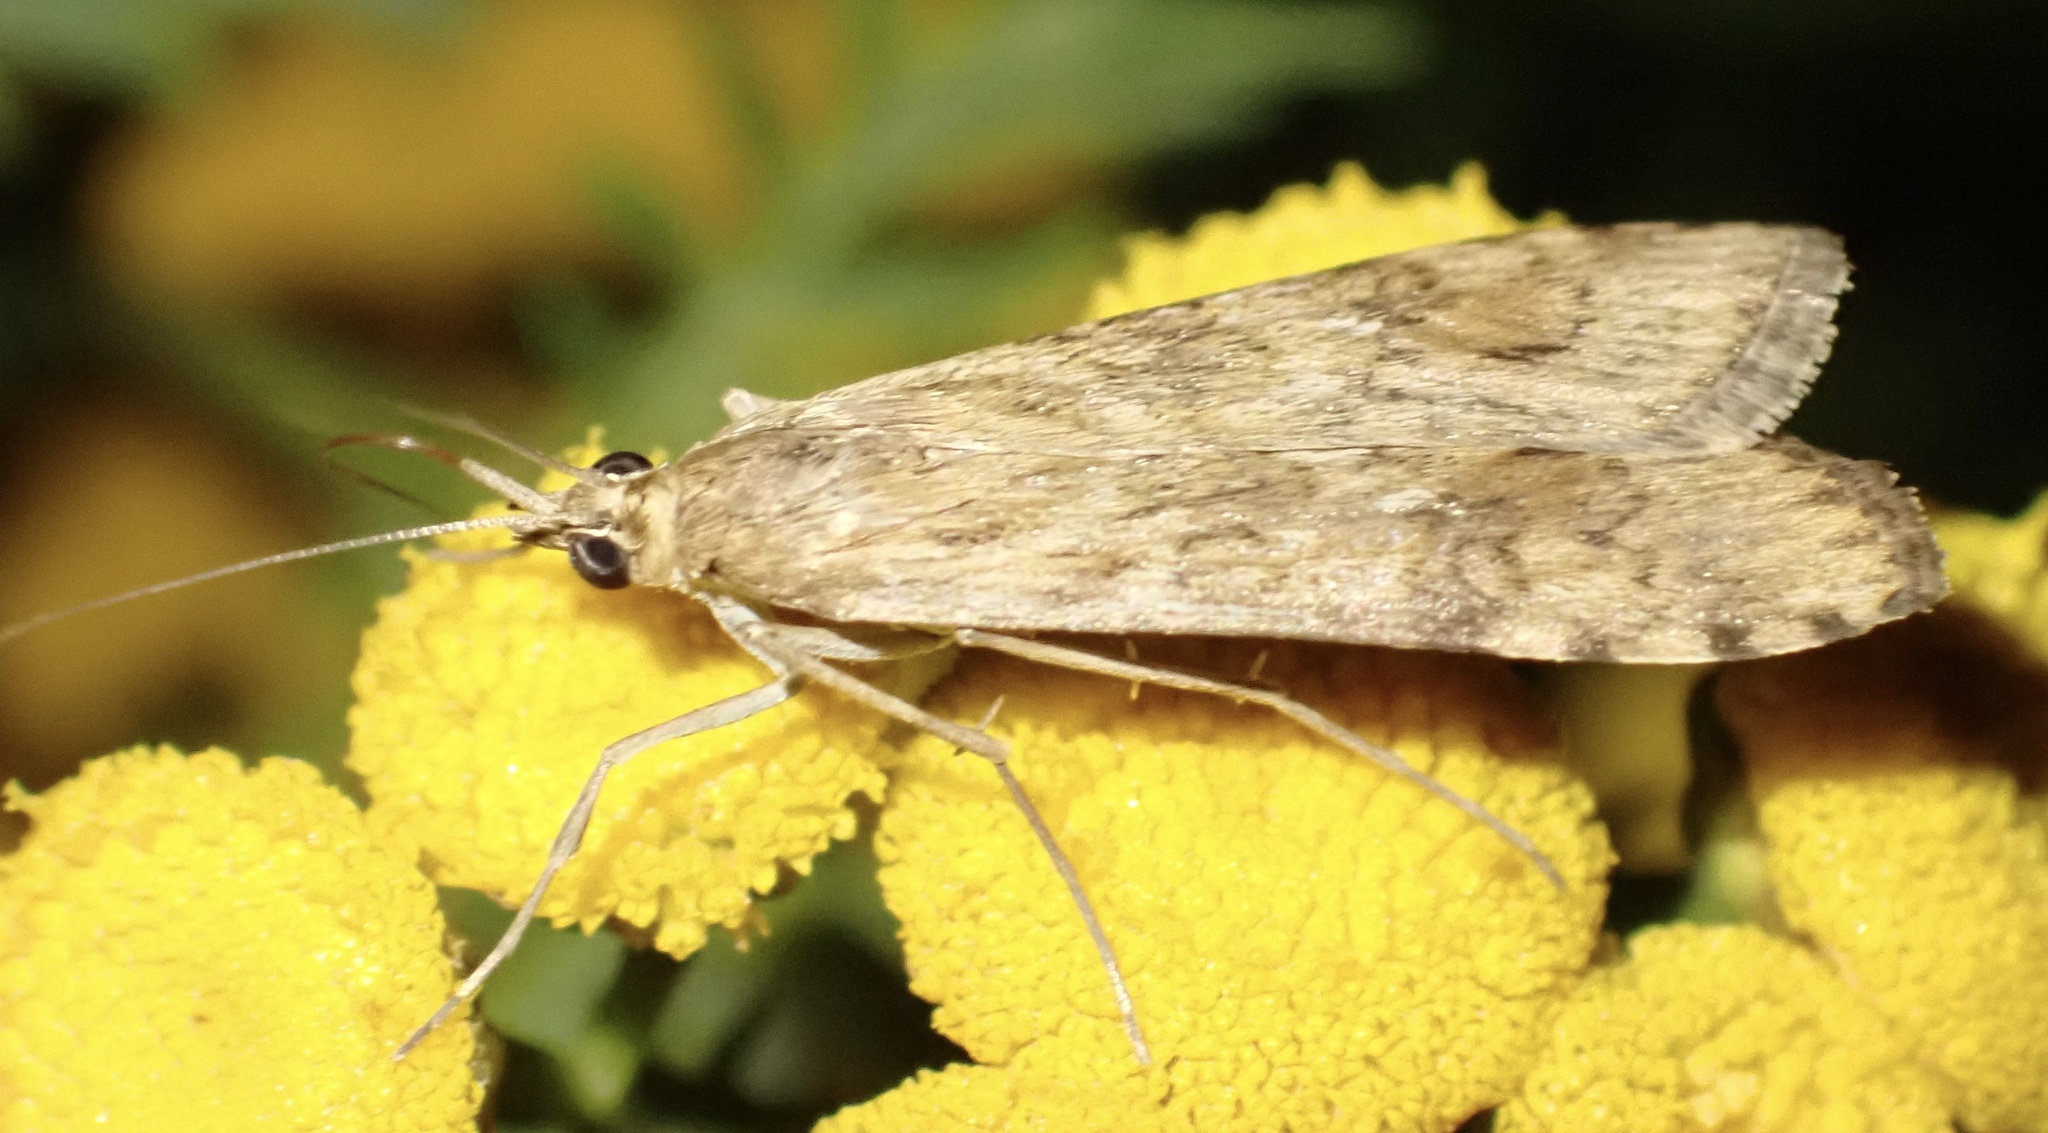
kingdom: Animalia
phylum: Arthropoda
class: Insecta
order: Lepidoptera
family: Crambidae
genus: Nomophila
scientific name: Nomophila noctuella
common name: Rush veneer
